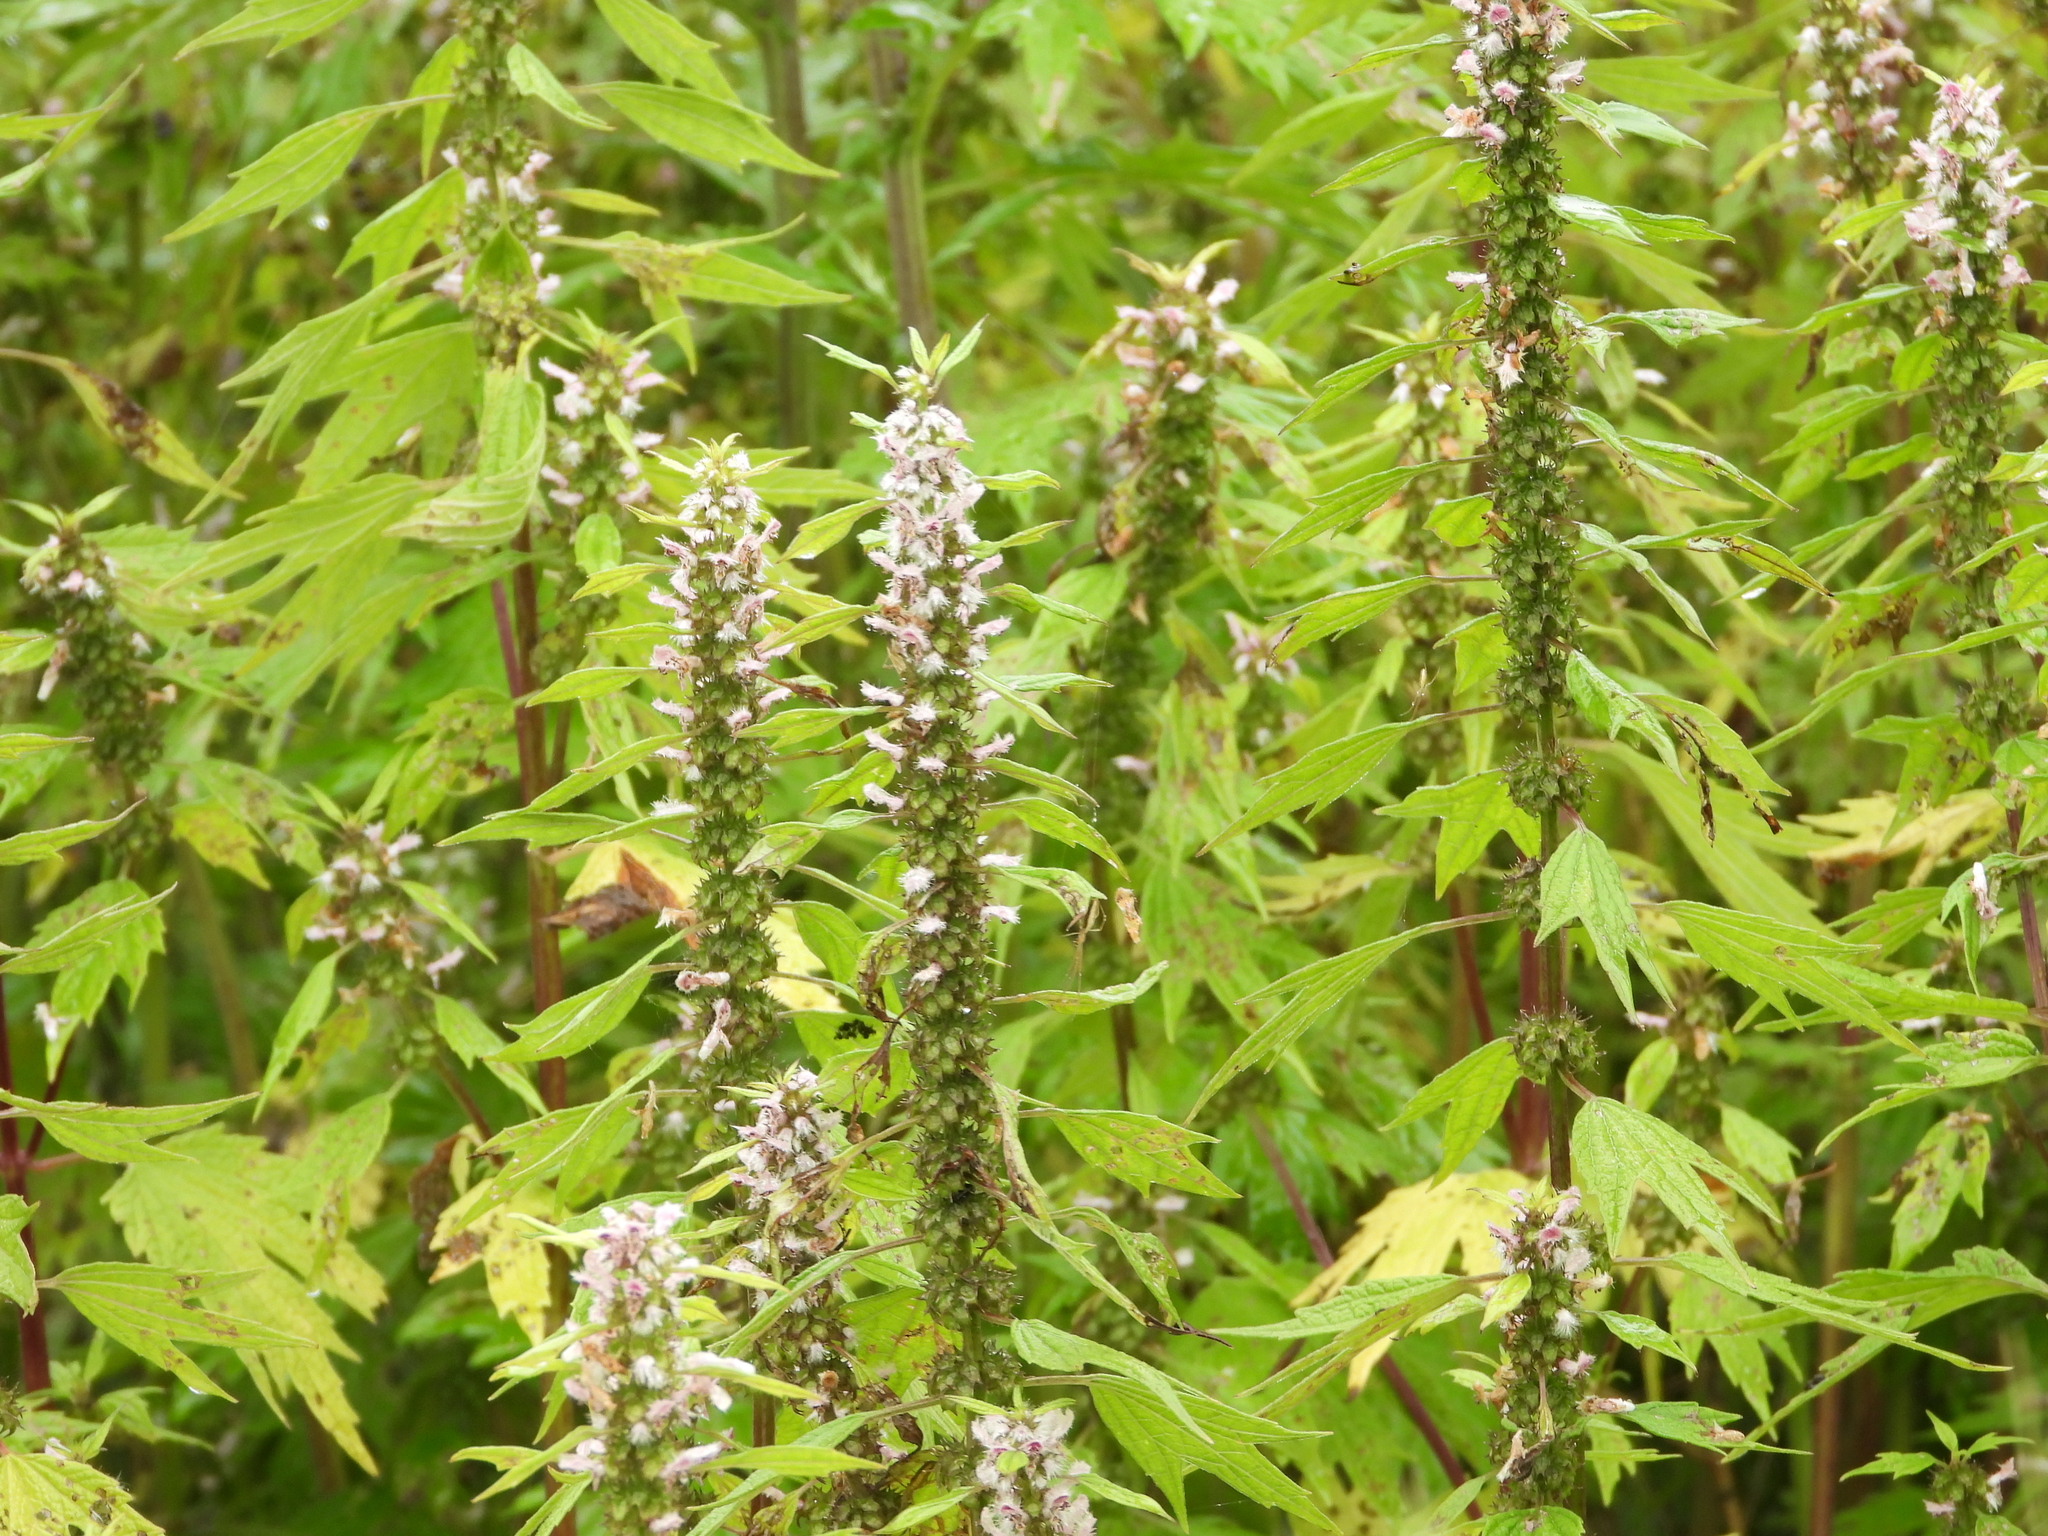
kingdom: Plantae
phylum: Tracheophyta
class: Magnoliopsida
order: Lamiales
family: Lamiaceae
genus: Leonurus
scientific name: Leonurus cardiaca
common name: Motherwort
